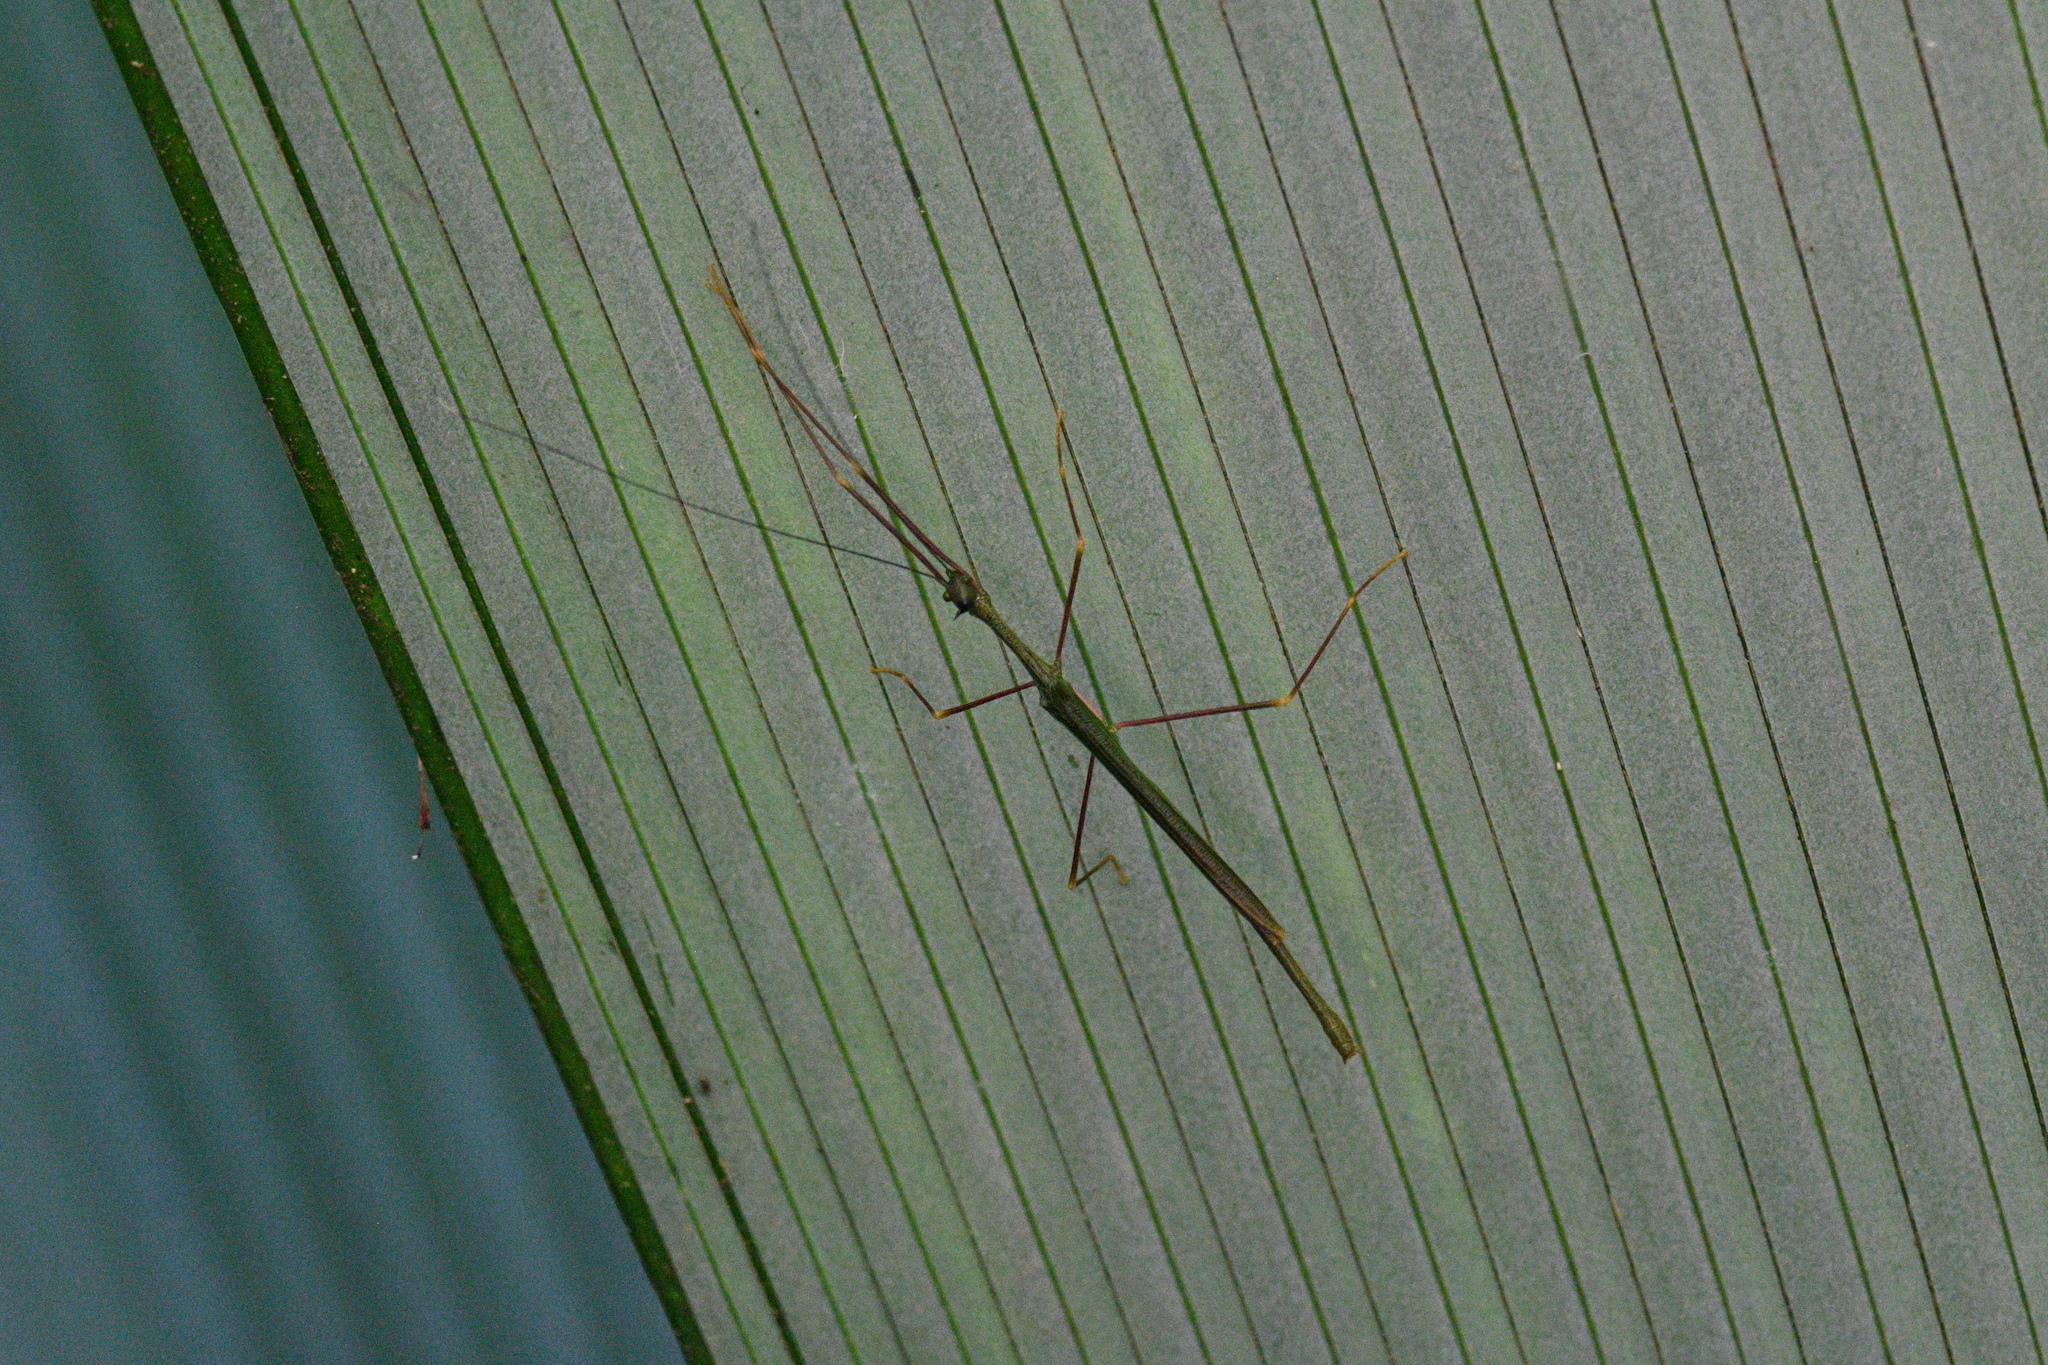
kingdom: Animalia
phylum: Arthropoda
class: Insecta
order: Phasmida
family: Lonchodidae
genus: Paradiacantha
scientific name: Paradiacantha acanthocephala
